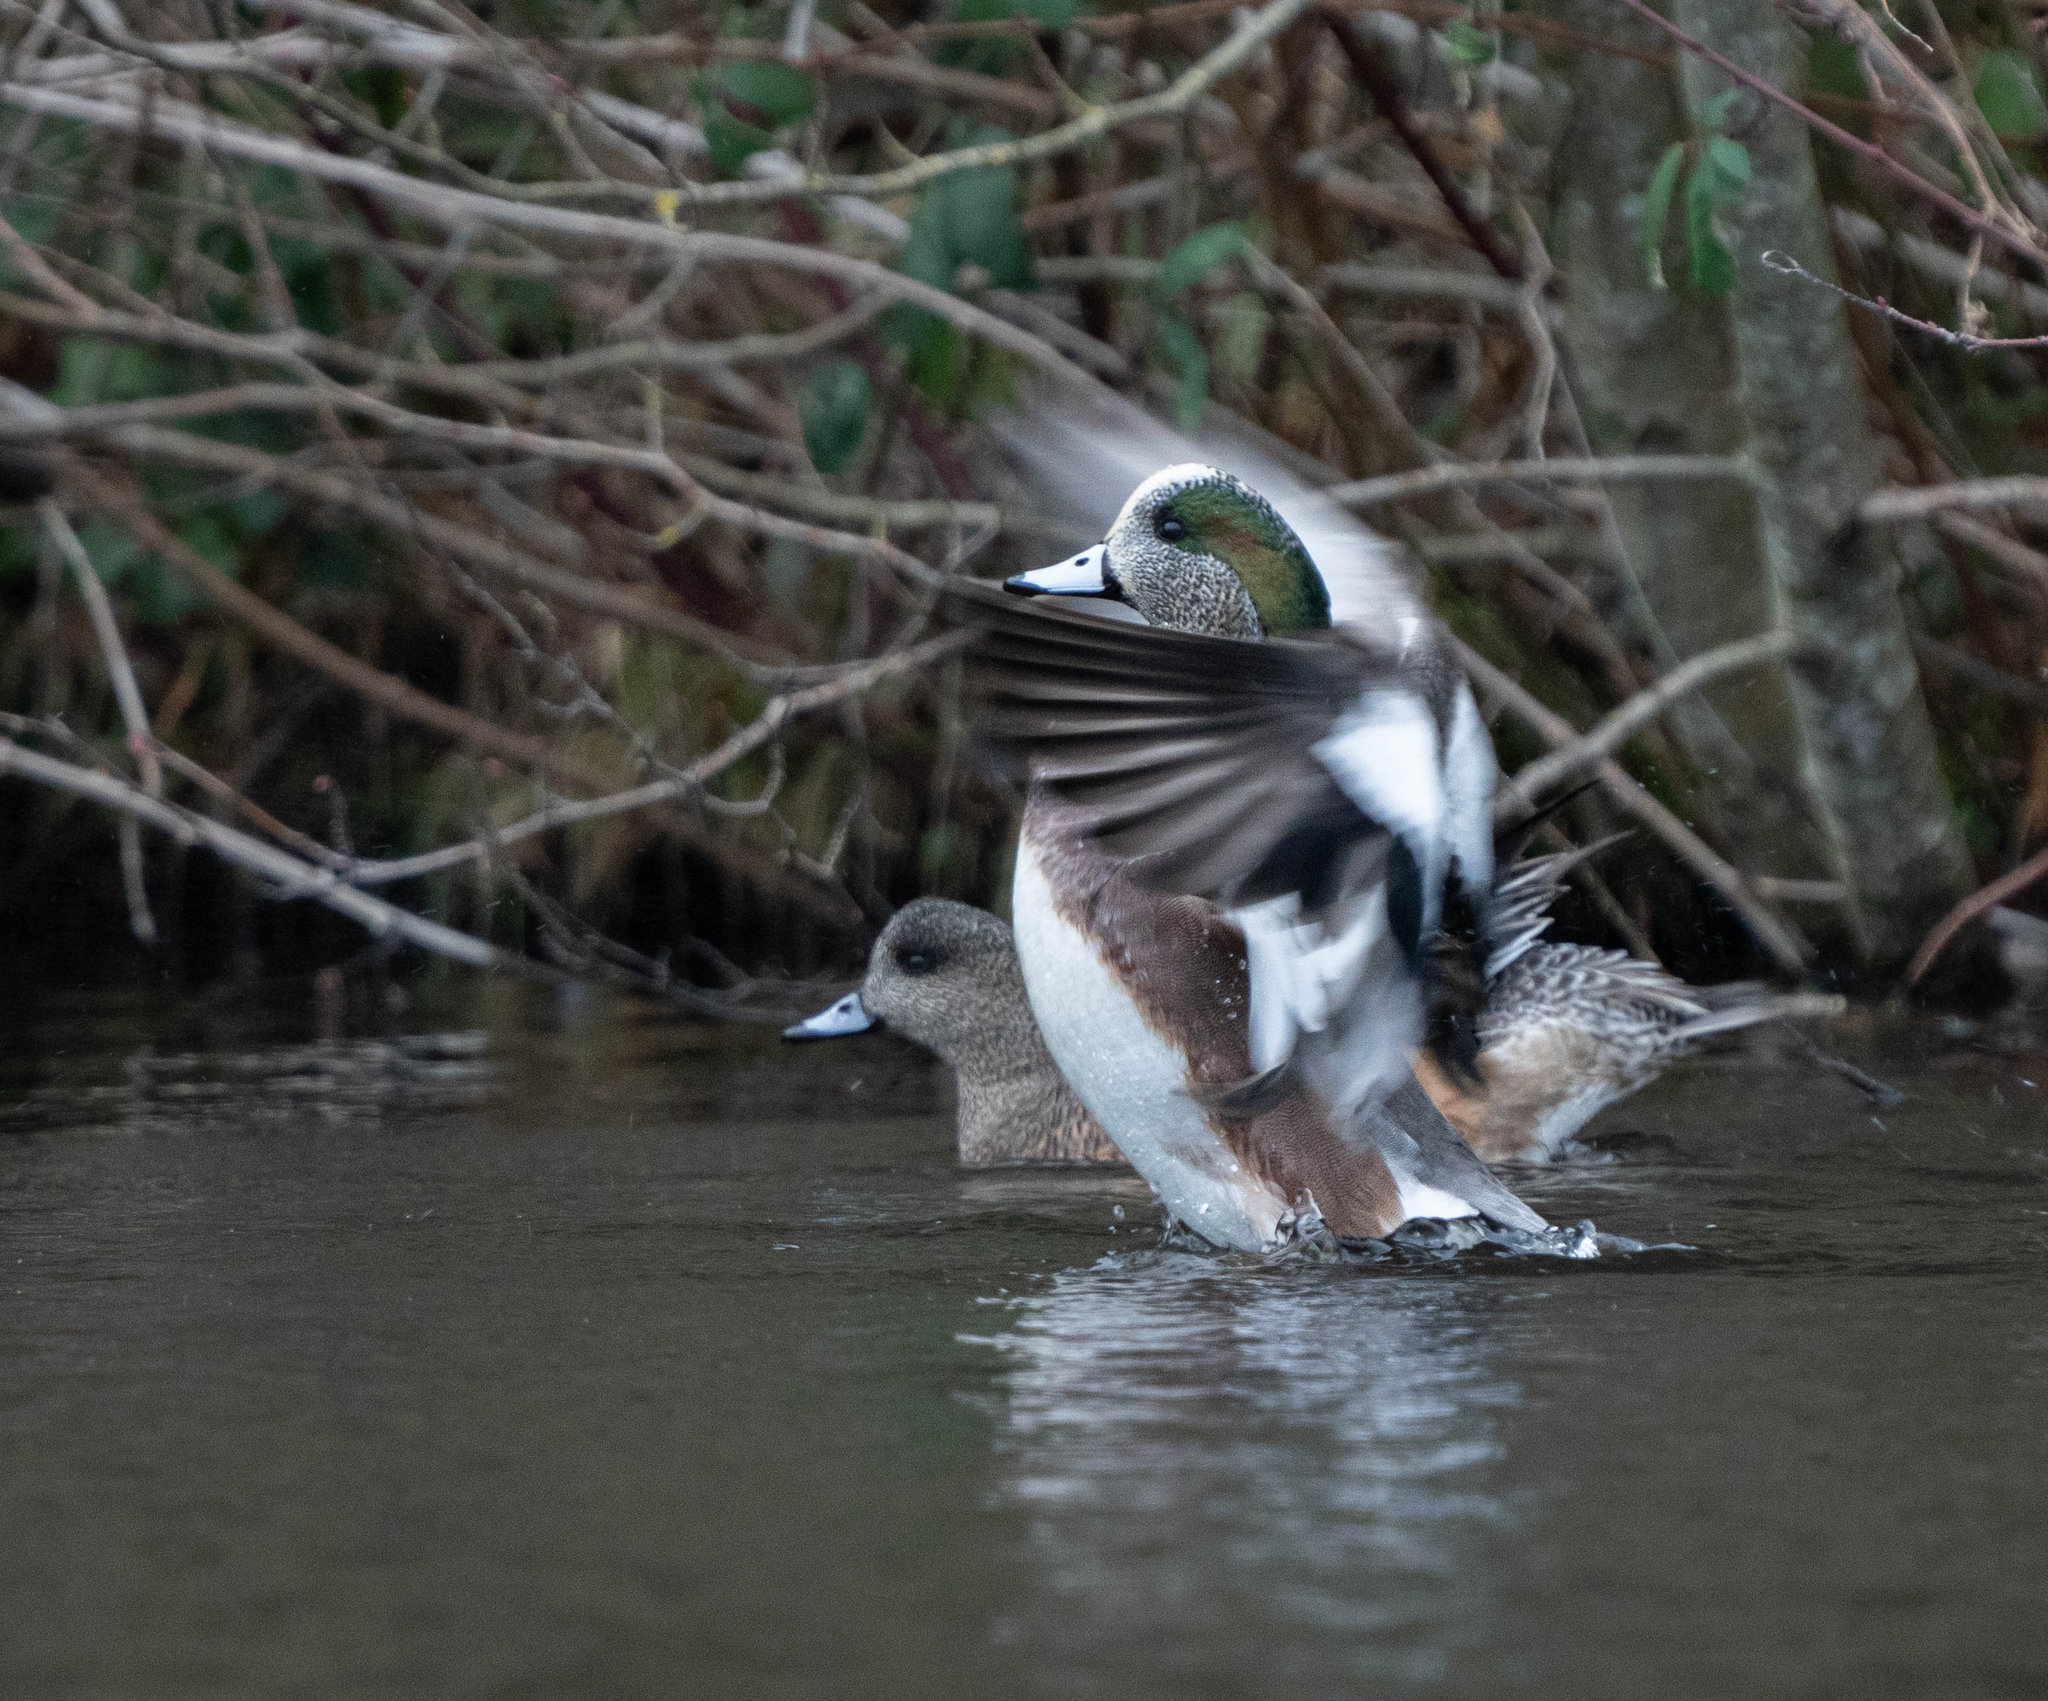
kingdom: Animalia
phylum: Chordata
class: Aves
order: Anseriformes
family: Anatidae
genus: Mareca
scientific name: Mareca americana
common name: American wigeon
